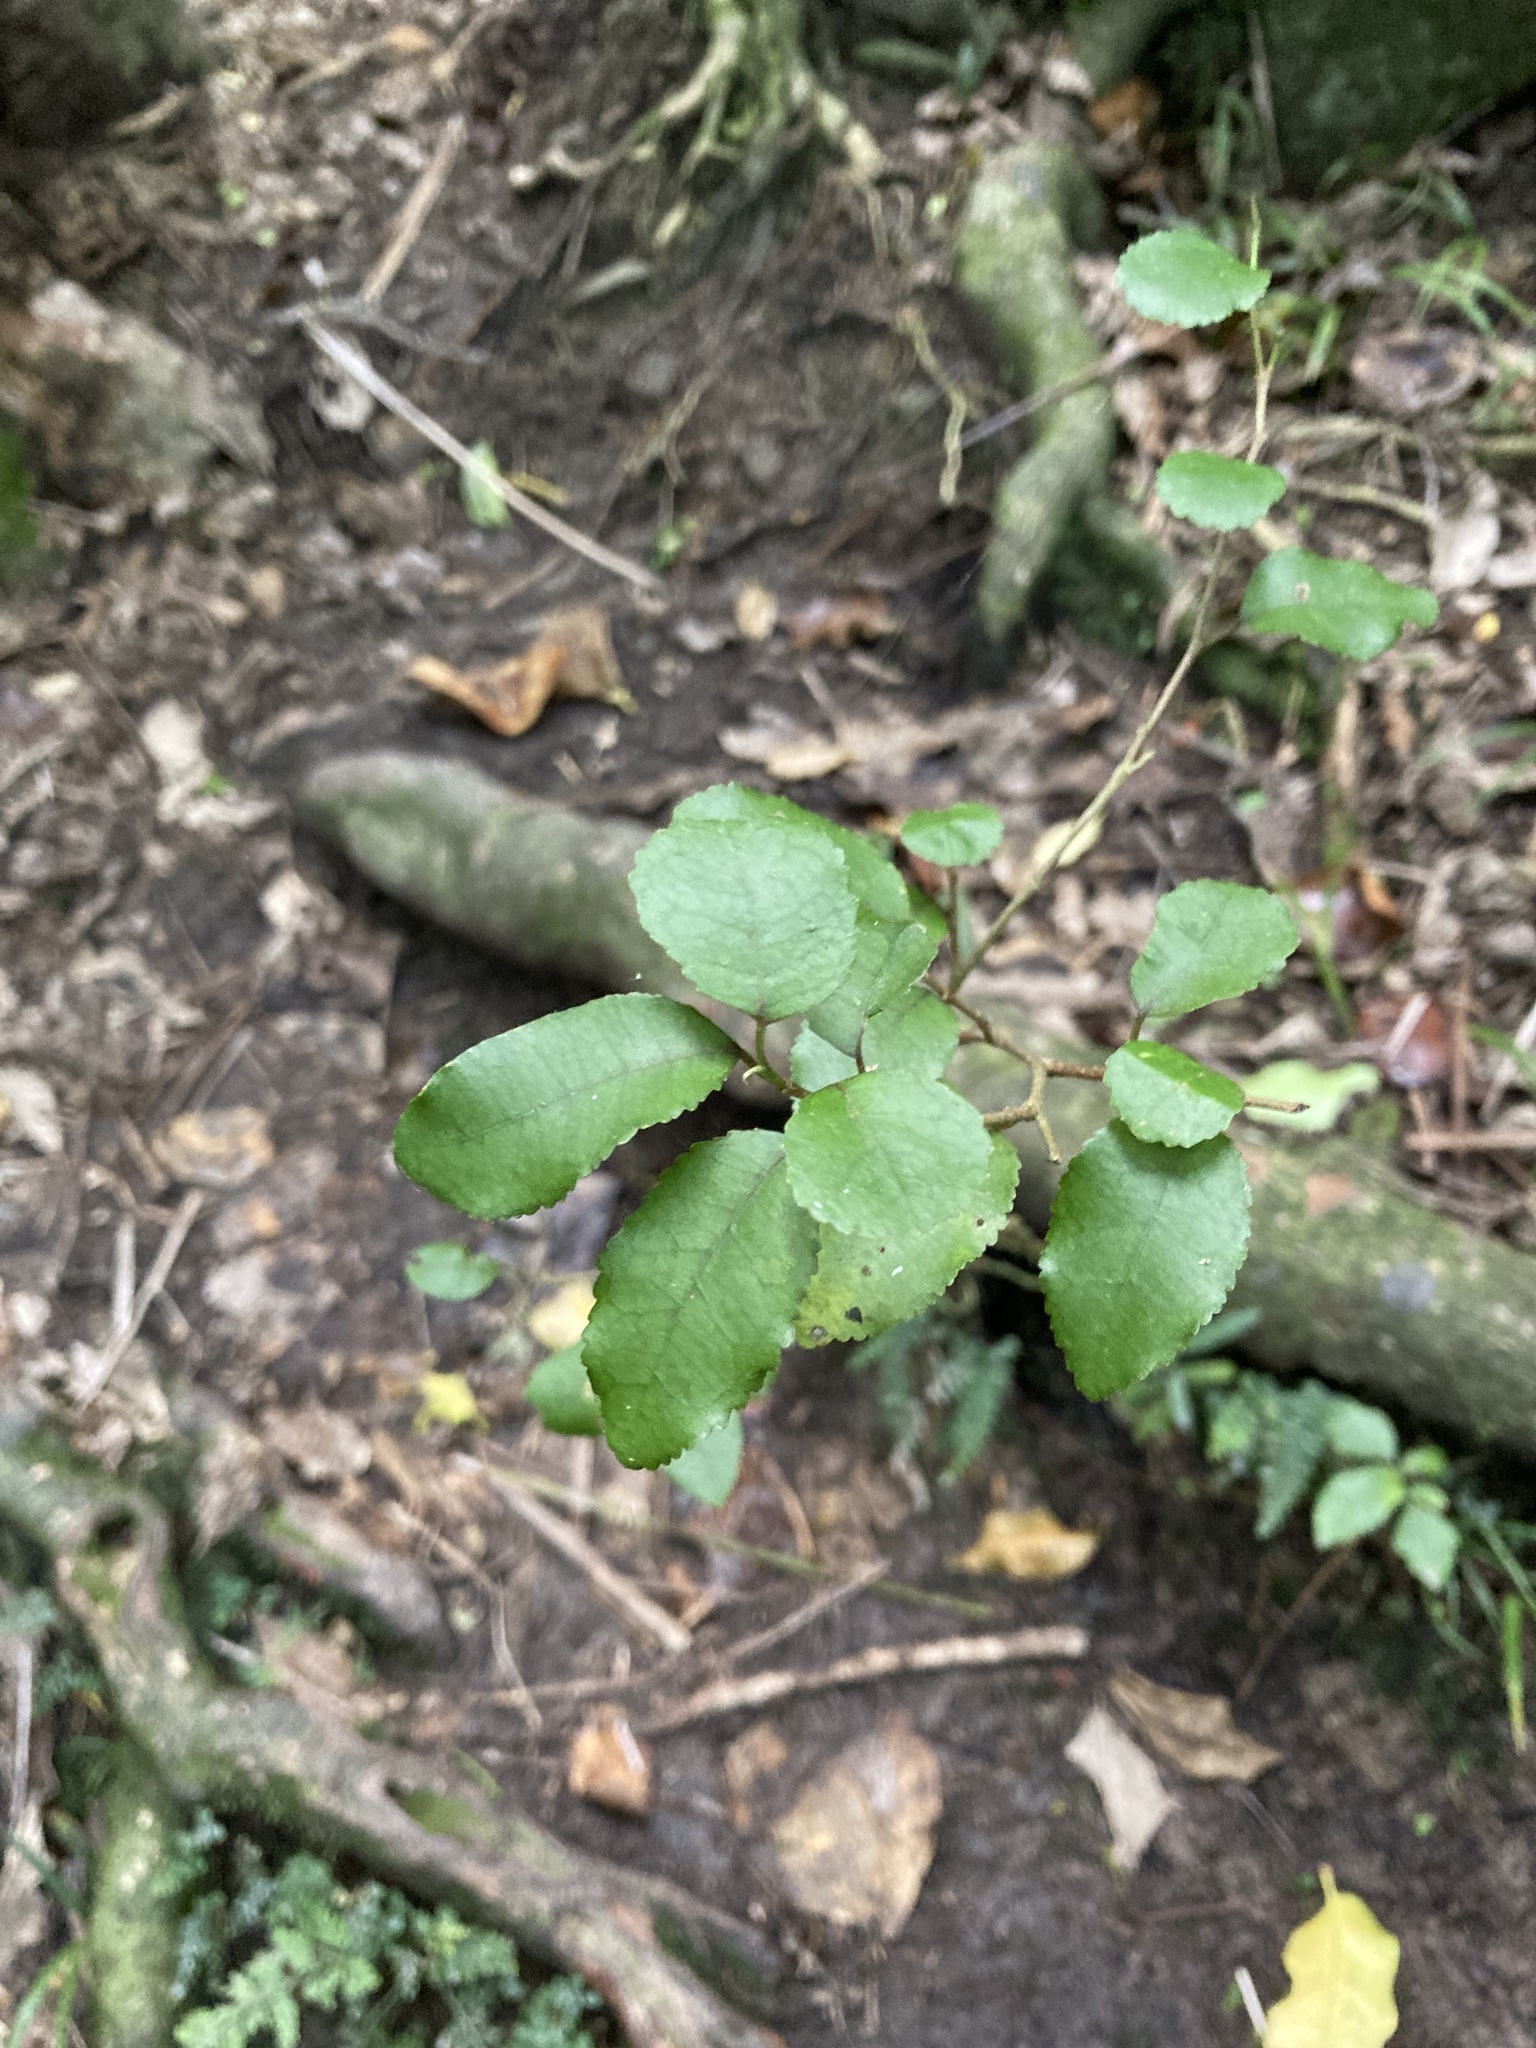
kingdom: Plantae
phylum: Tracheophyta
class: Magnoliopsida
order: Rosales
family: Moraceae
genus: Paratrophis
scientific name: Paratrophis banksii
